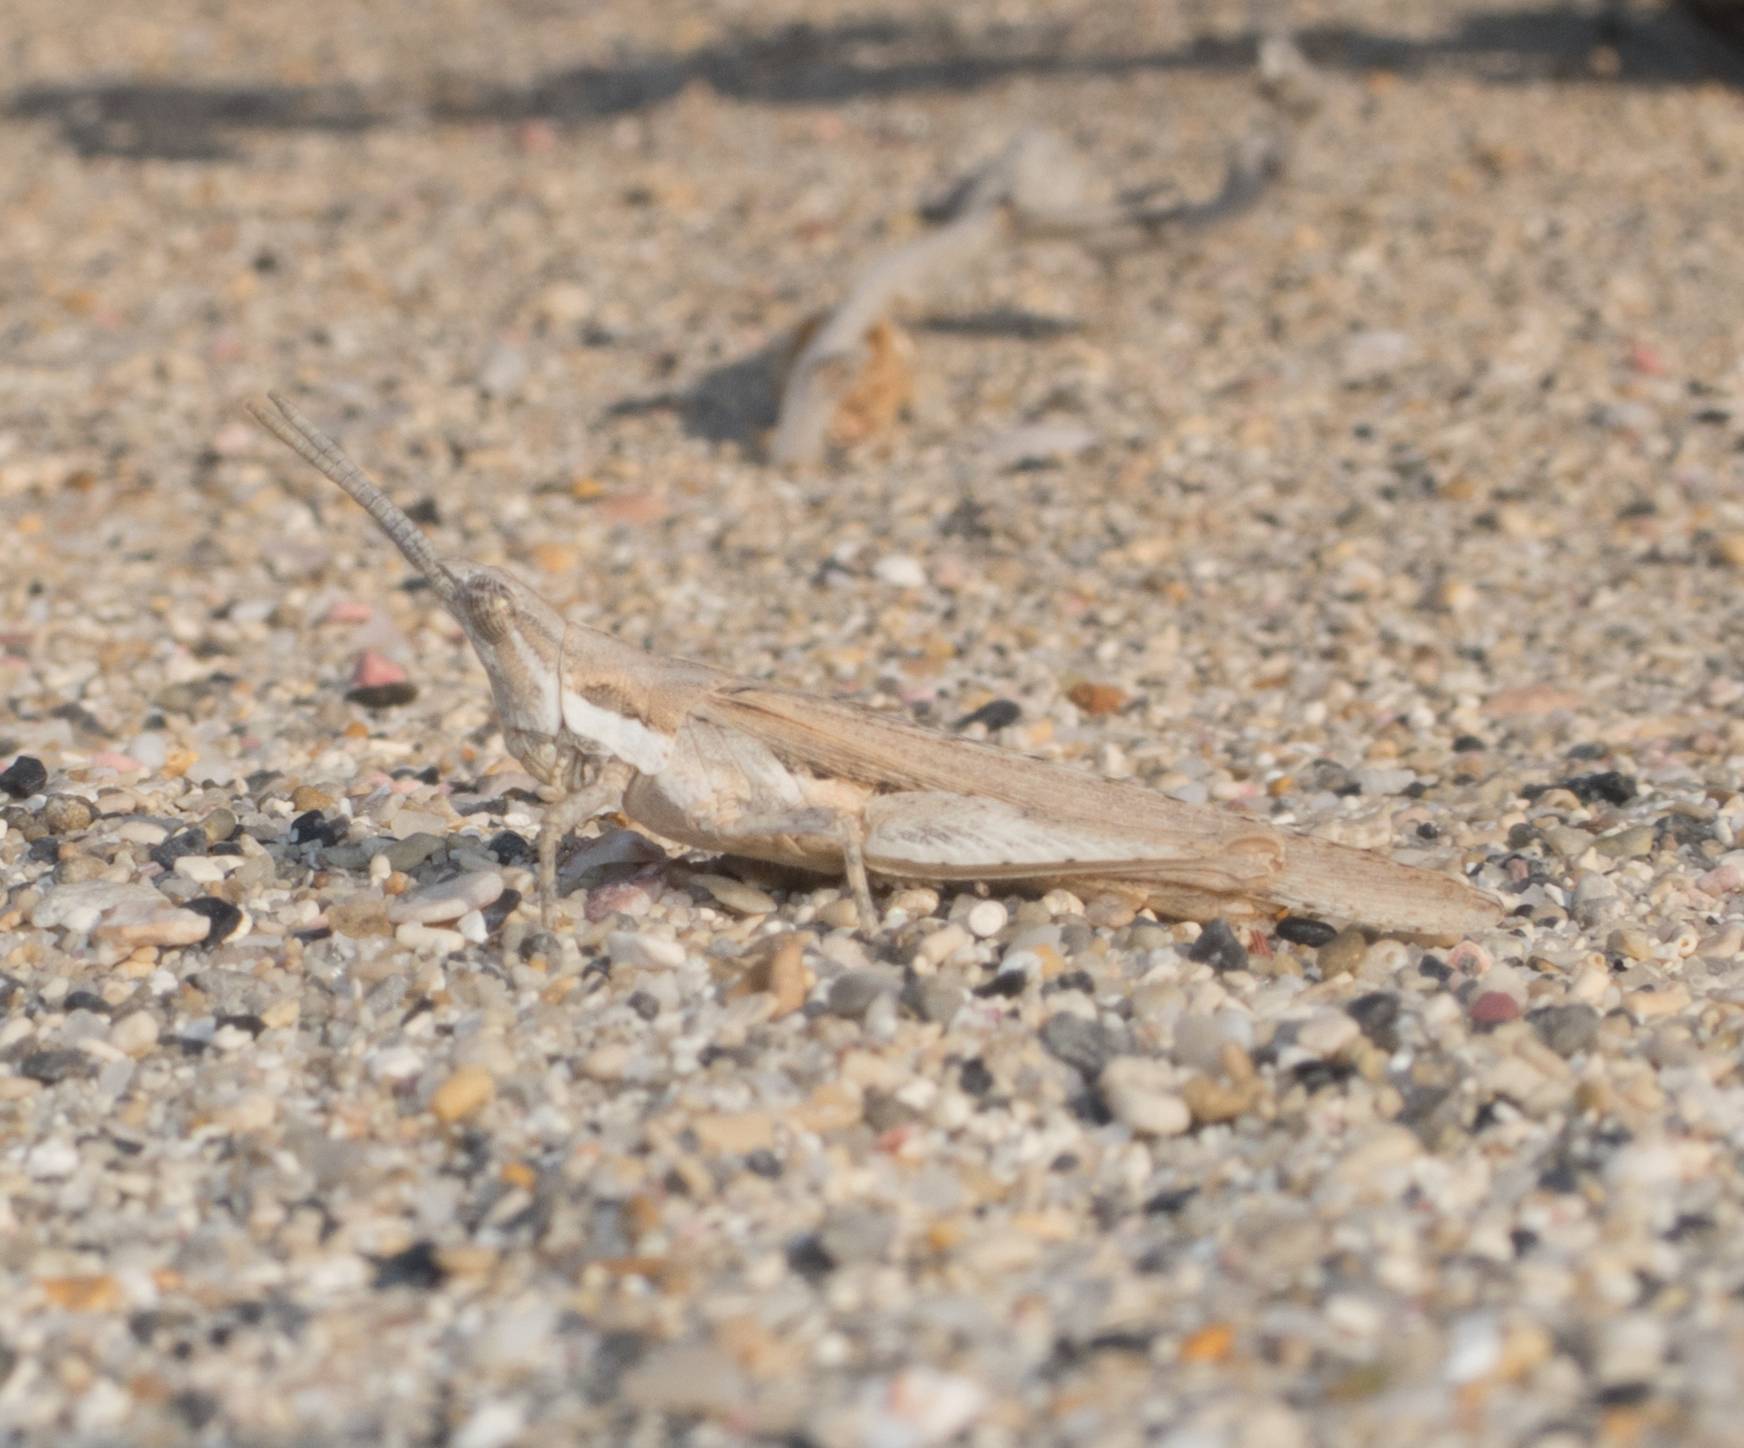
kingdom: Animalia
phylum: Arthropoda
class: Insecta
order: Orthoptera
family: Pyrgomorphidae
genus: Pyrgomorpha
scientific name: Pyrgomorpha conica
